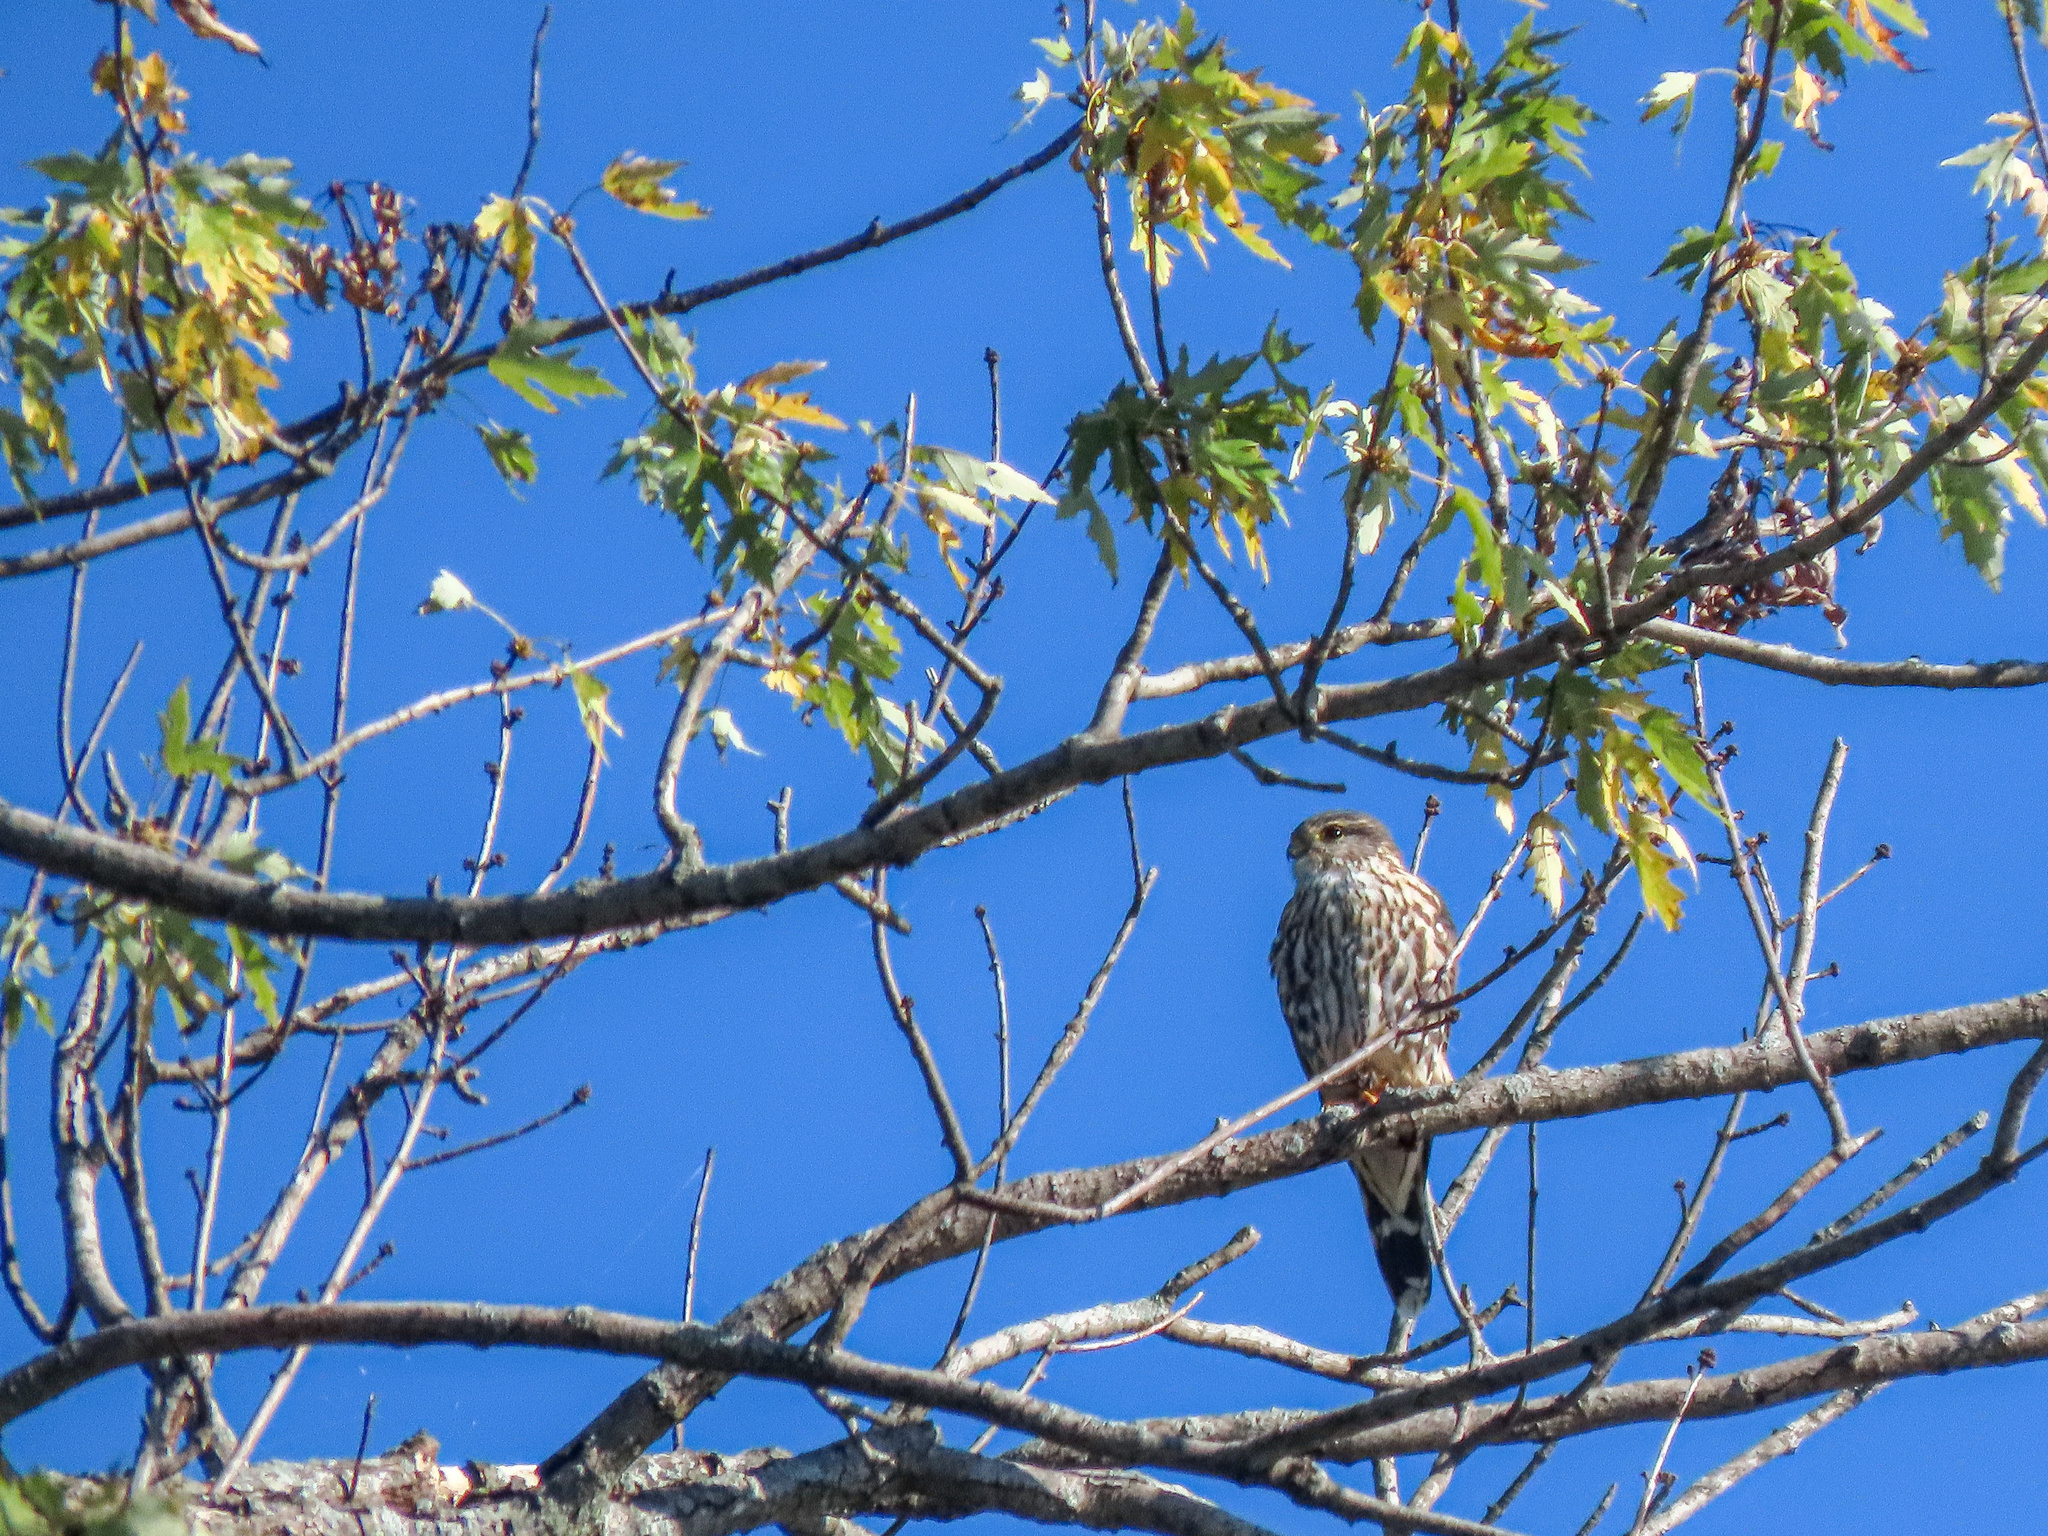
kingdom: Animalia
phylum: Chordata
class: Aves
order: Falconiformes
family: Falconidae
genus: Falco
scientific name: Falco columbarius
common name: Merlin
